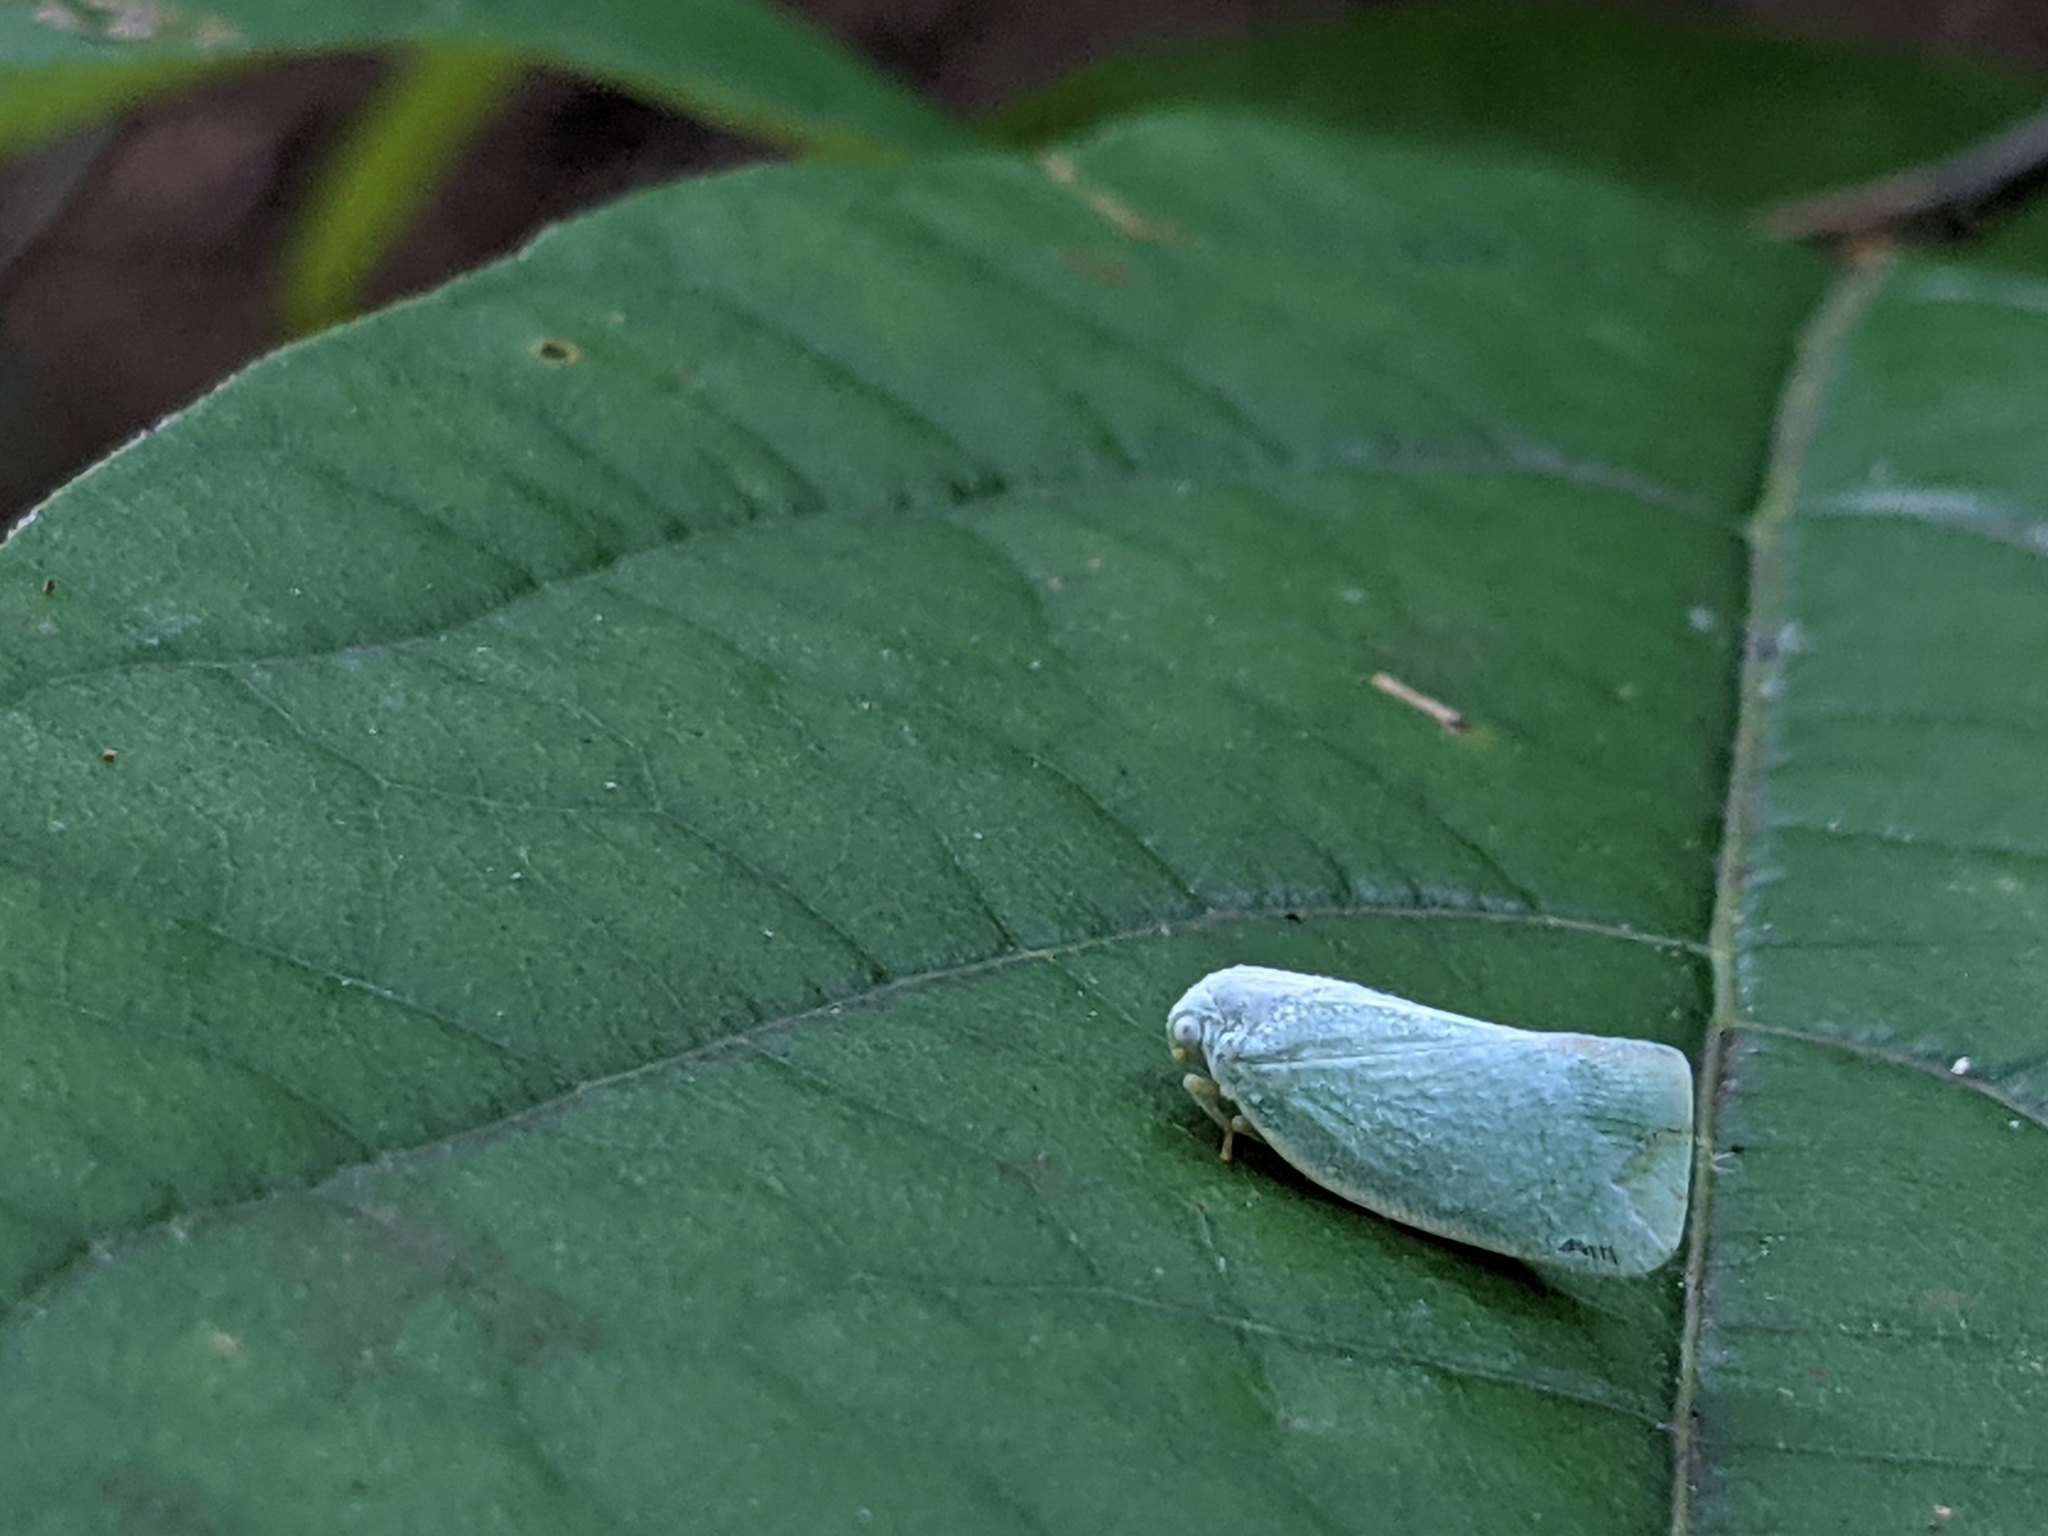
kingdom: Animalia
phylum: Arthropoda
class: Insecta
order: Hemiptera
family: Flatidae
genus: Flatormenis
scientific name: Flatormenis proxima
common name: Northern flatid planthopper
